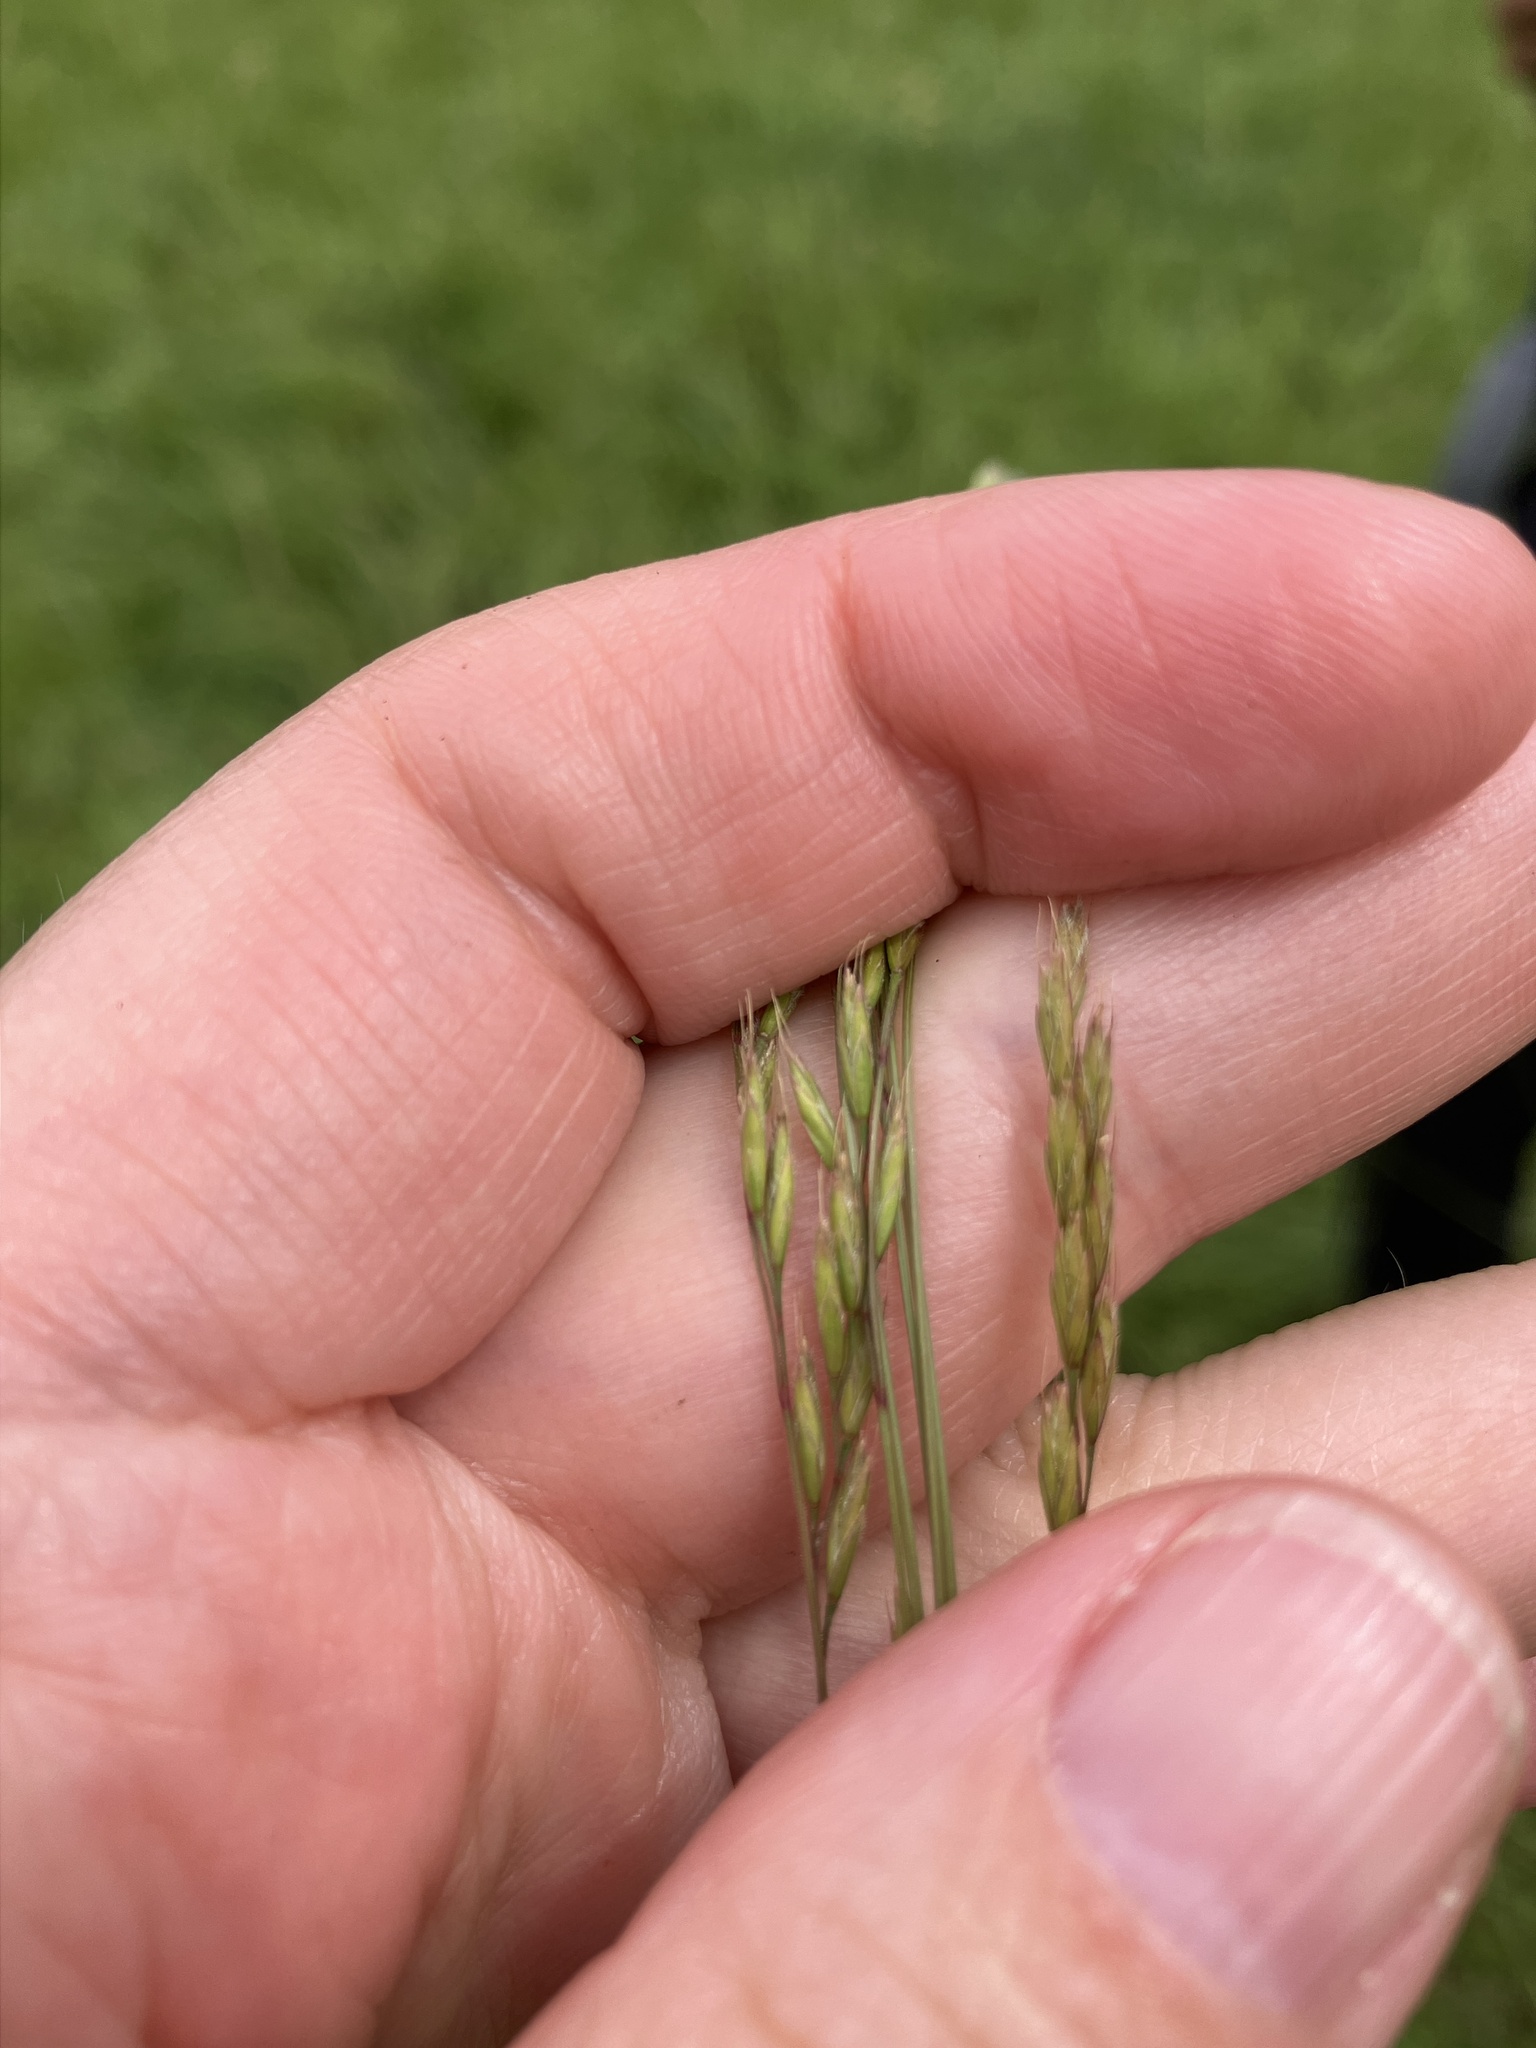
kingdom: Plantae
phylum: Tracheophyta
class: Liliopsida
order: Poales
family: Poaceae
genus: Festuca
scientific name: Festuca rupicola
